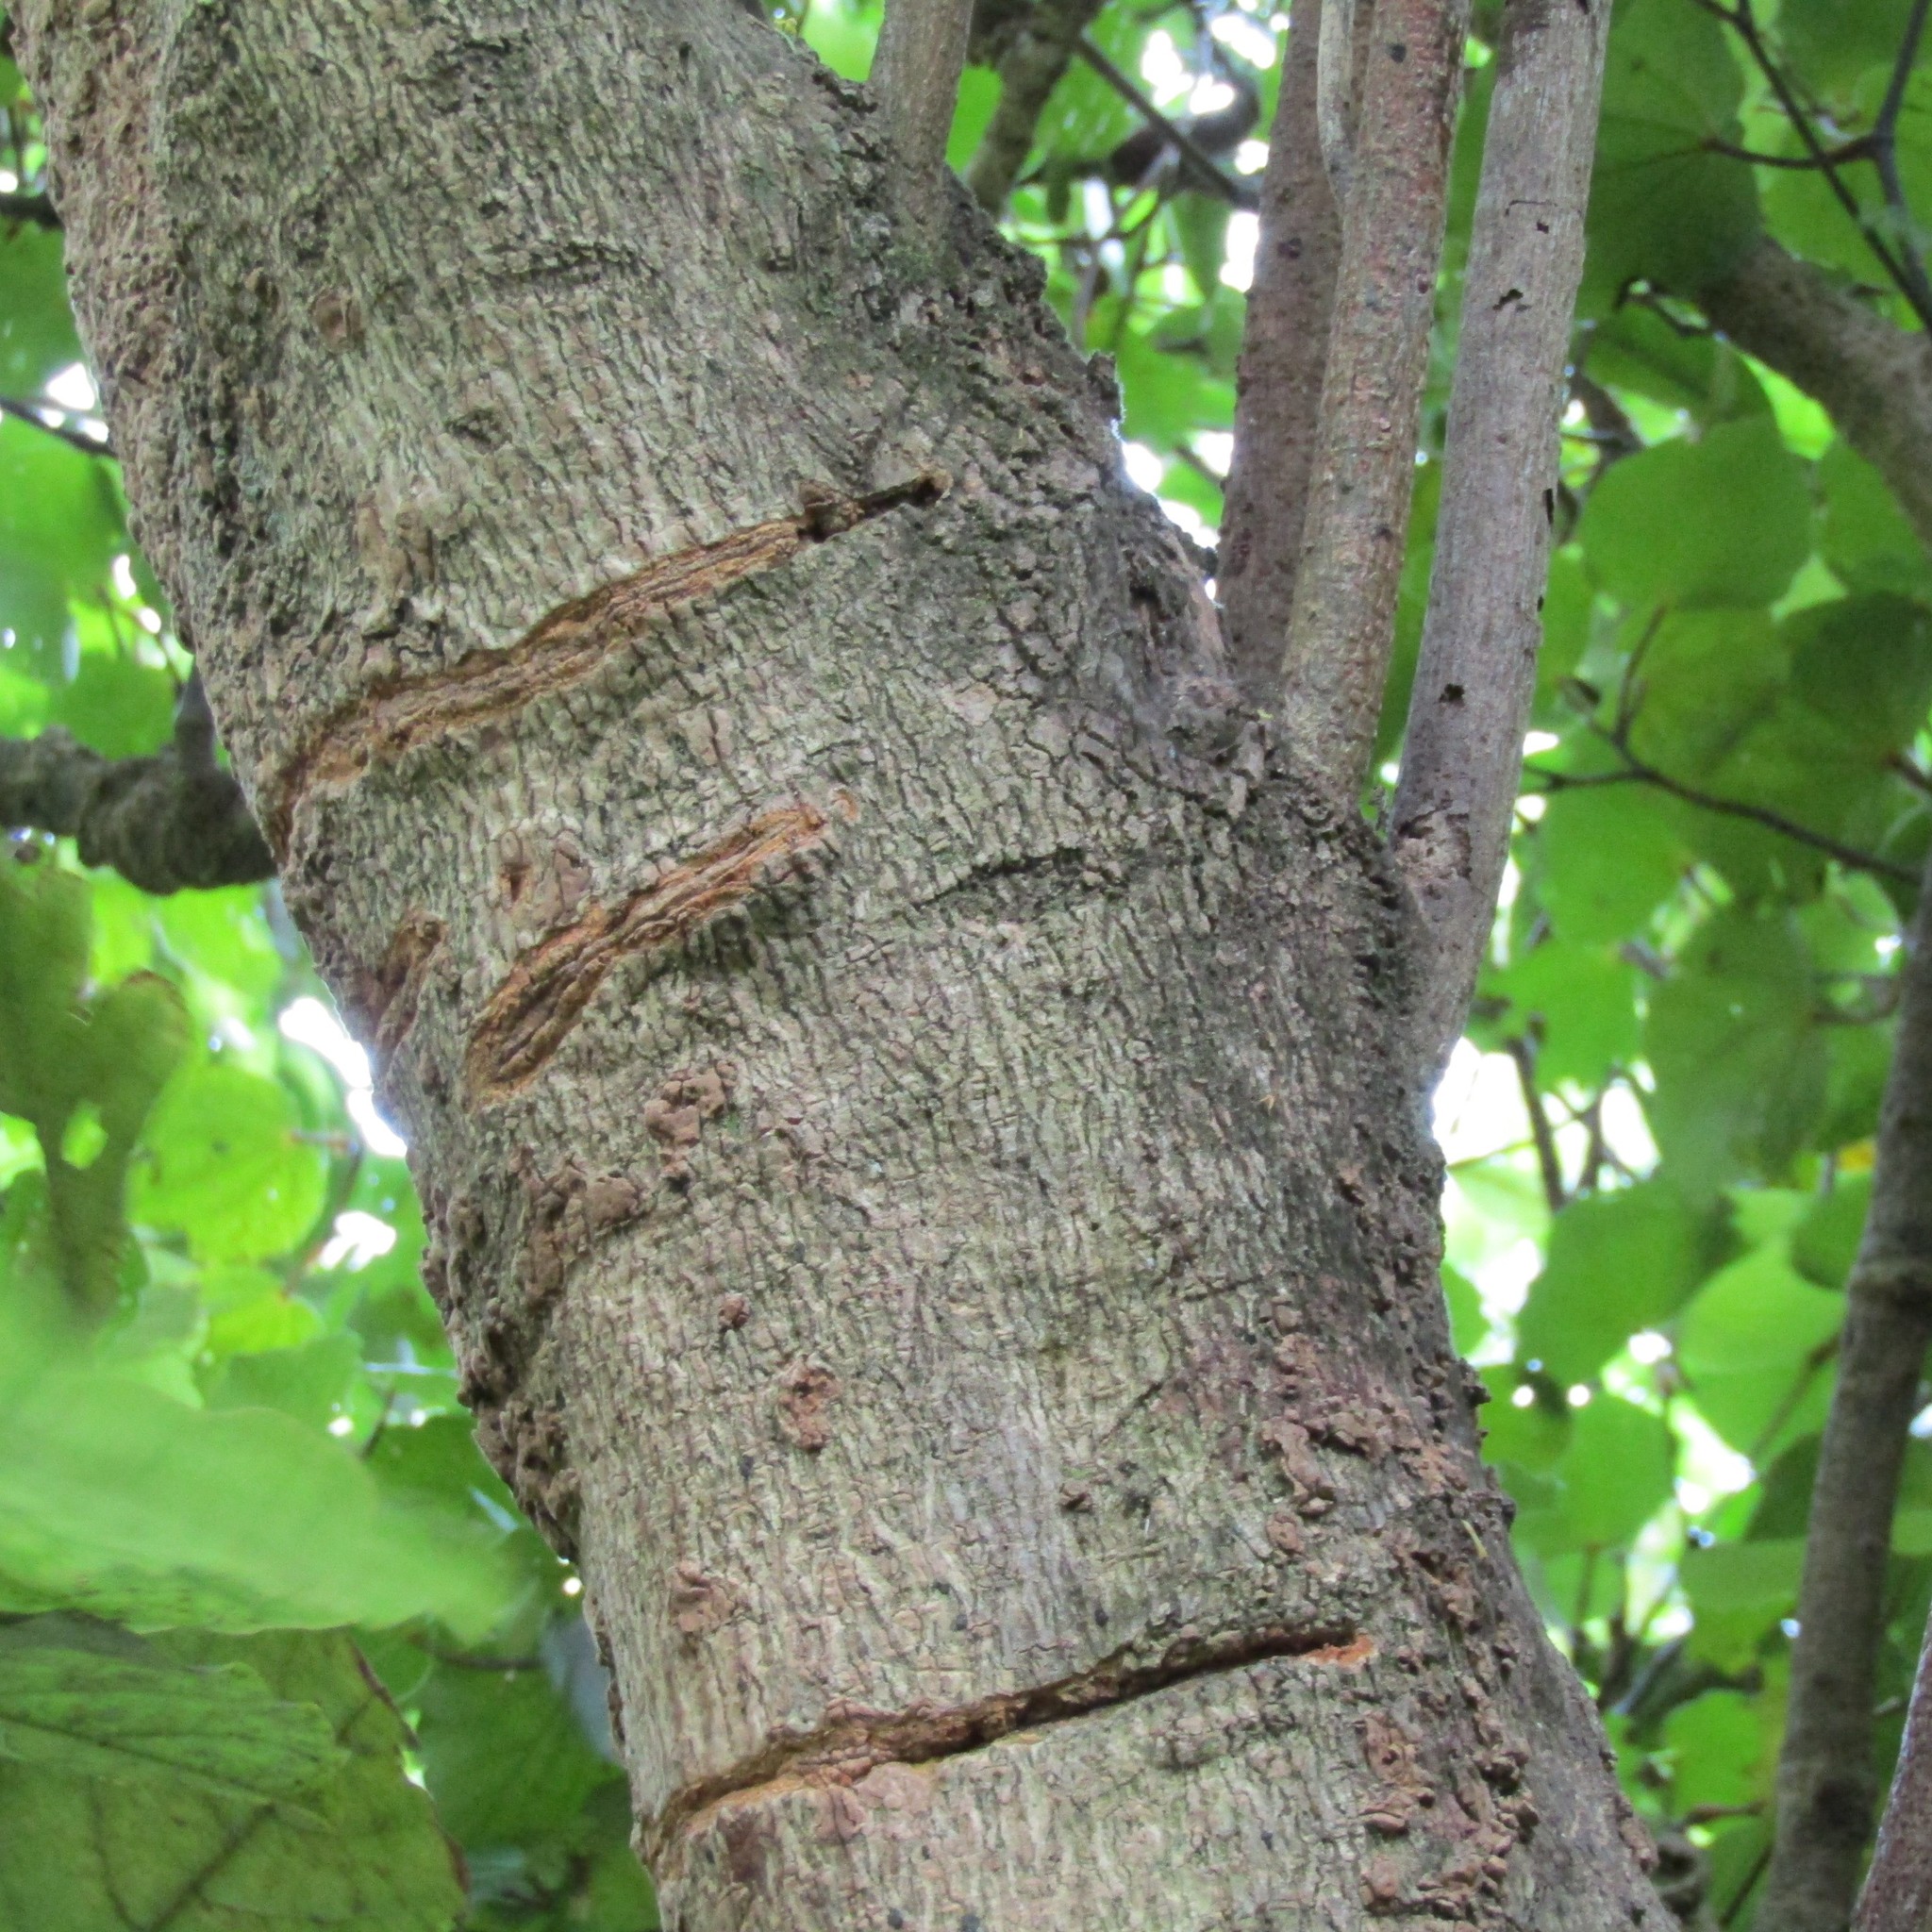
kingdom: Animalia
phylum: Chordata
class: Aves
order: Psittaciformes
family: Psittacidae
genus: Nestor
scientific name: Nestor meridionalis
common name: New zealand kaka
